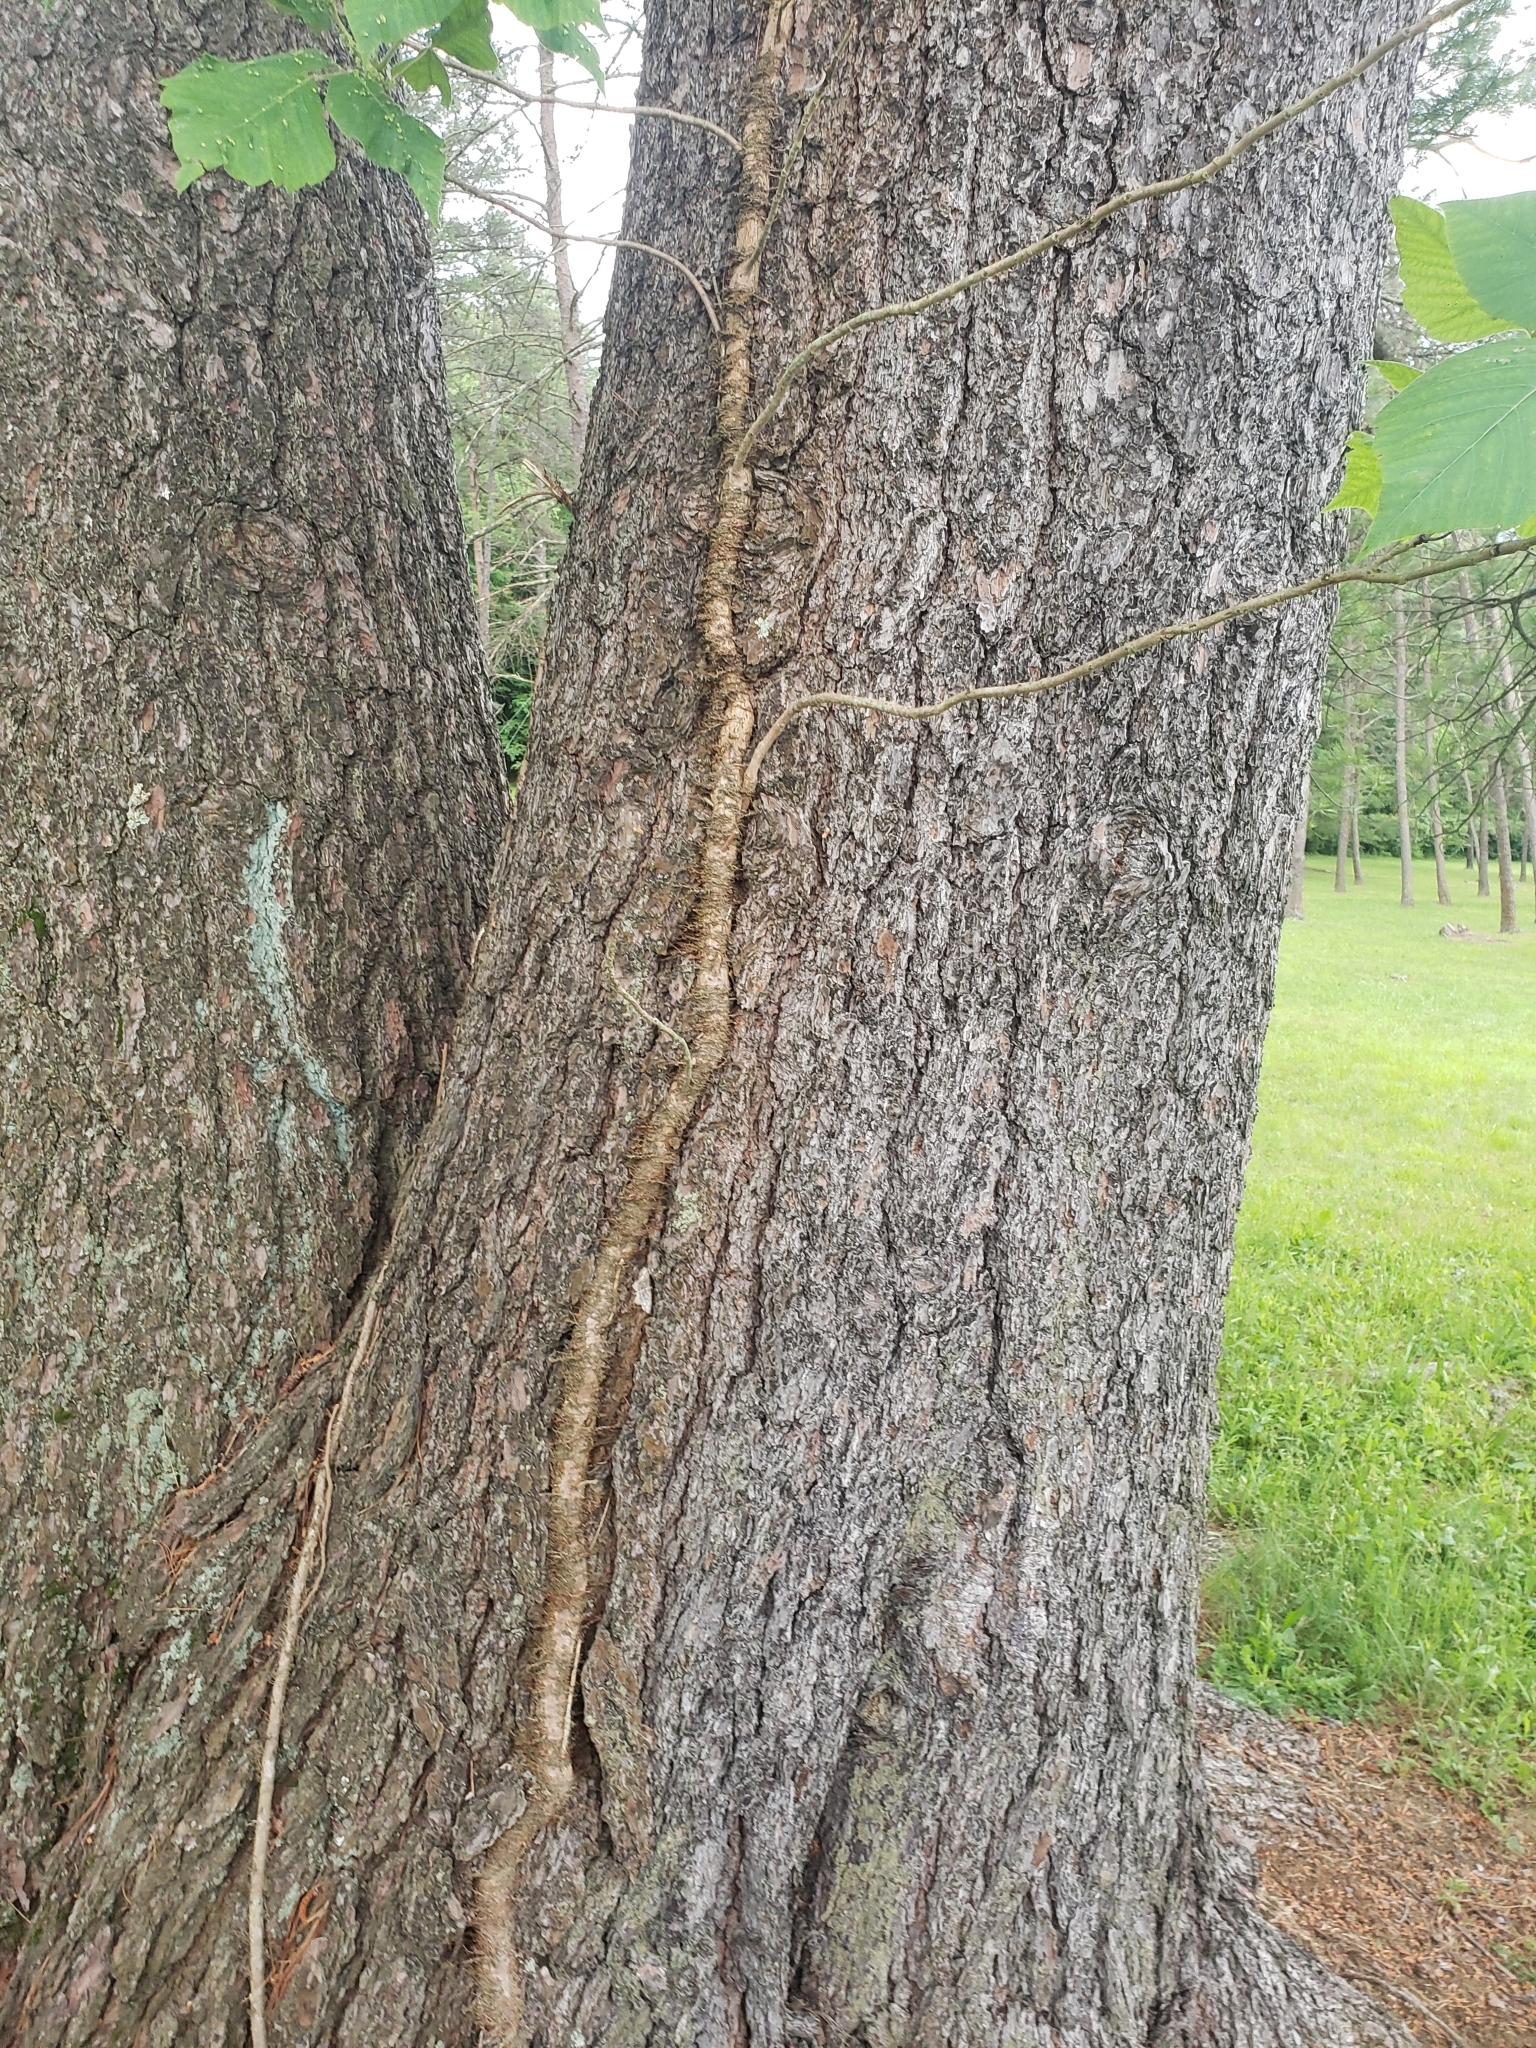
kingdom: Plantae
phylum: Tracheophyta
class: Magnoliopsida
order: Sapindales
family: Anacardiaceae
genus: Toxicodendron
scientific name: Toxicodendron radicans
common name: Poison ivy
